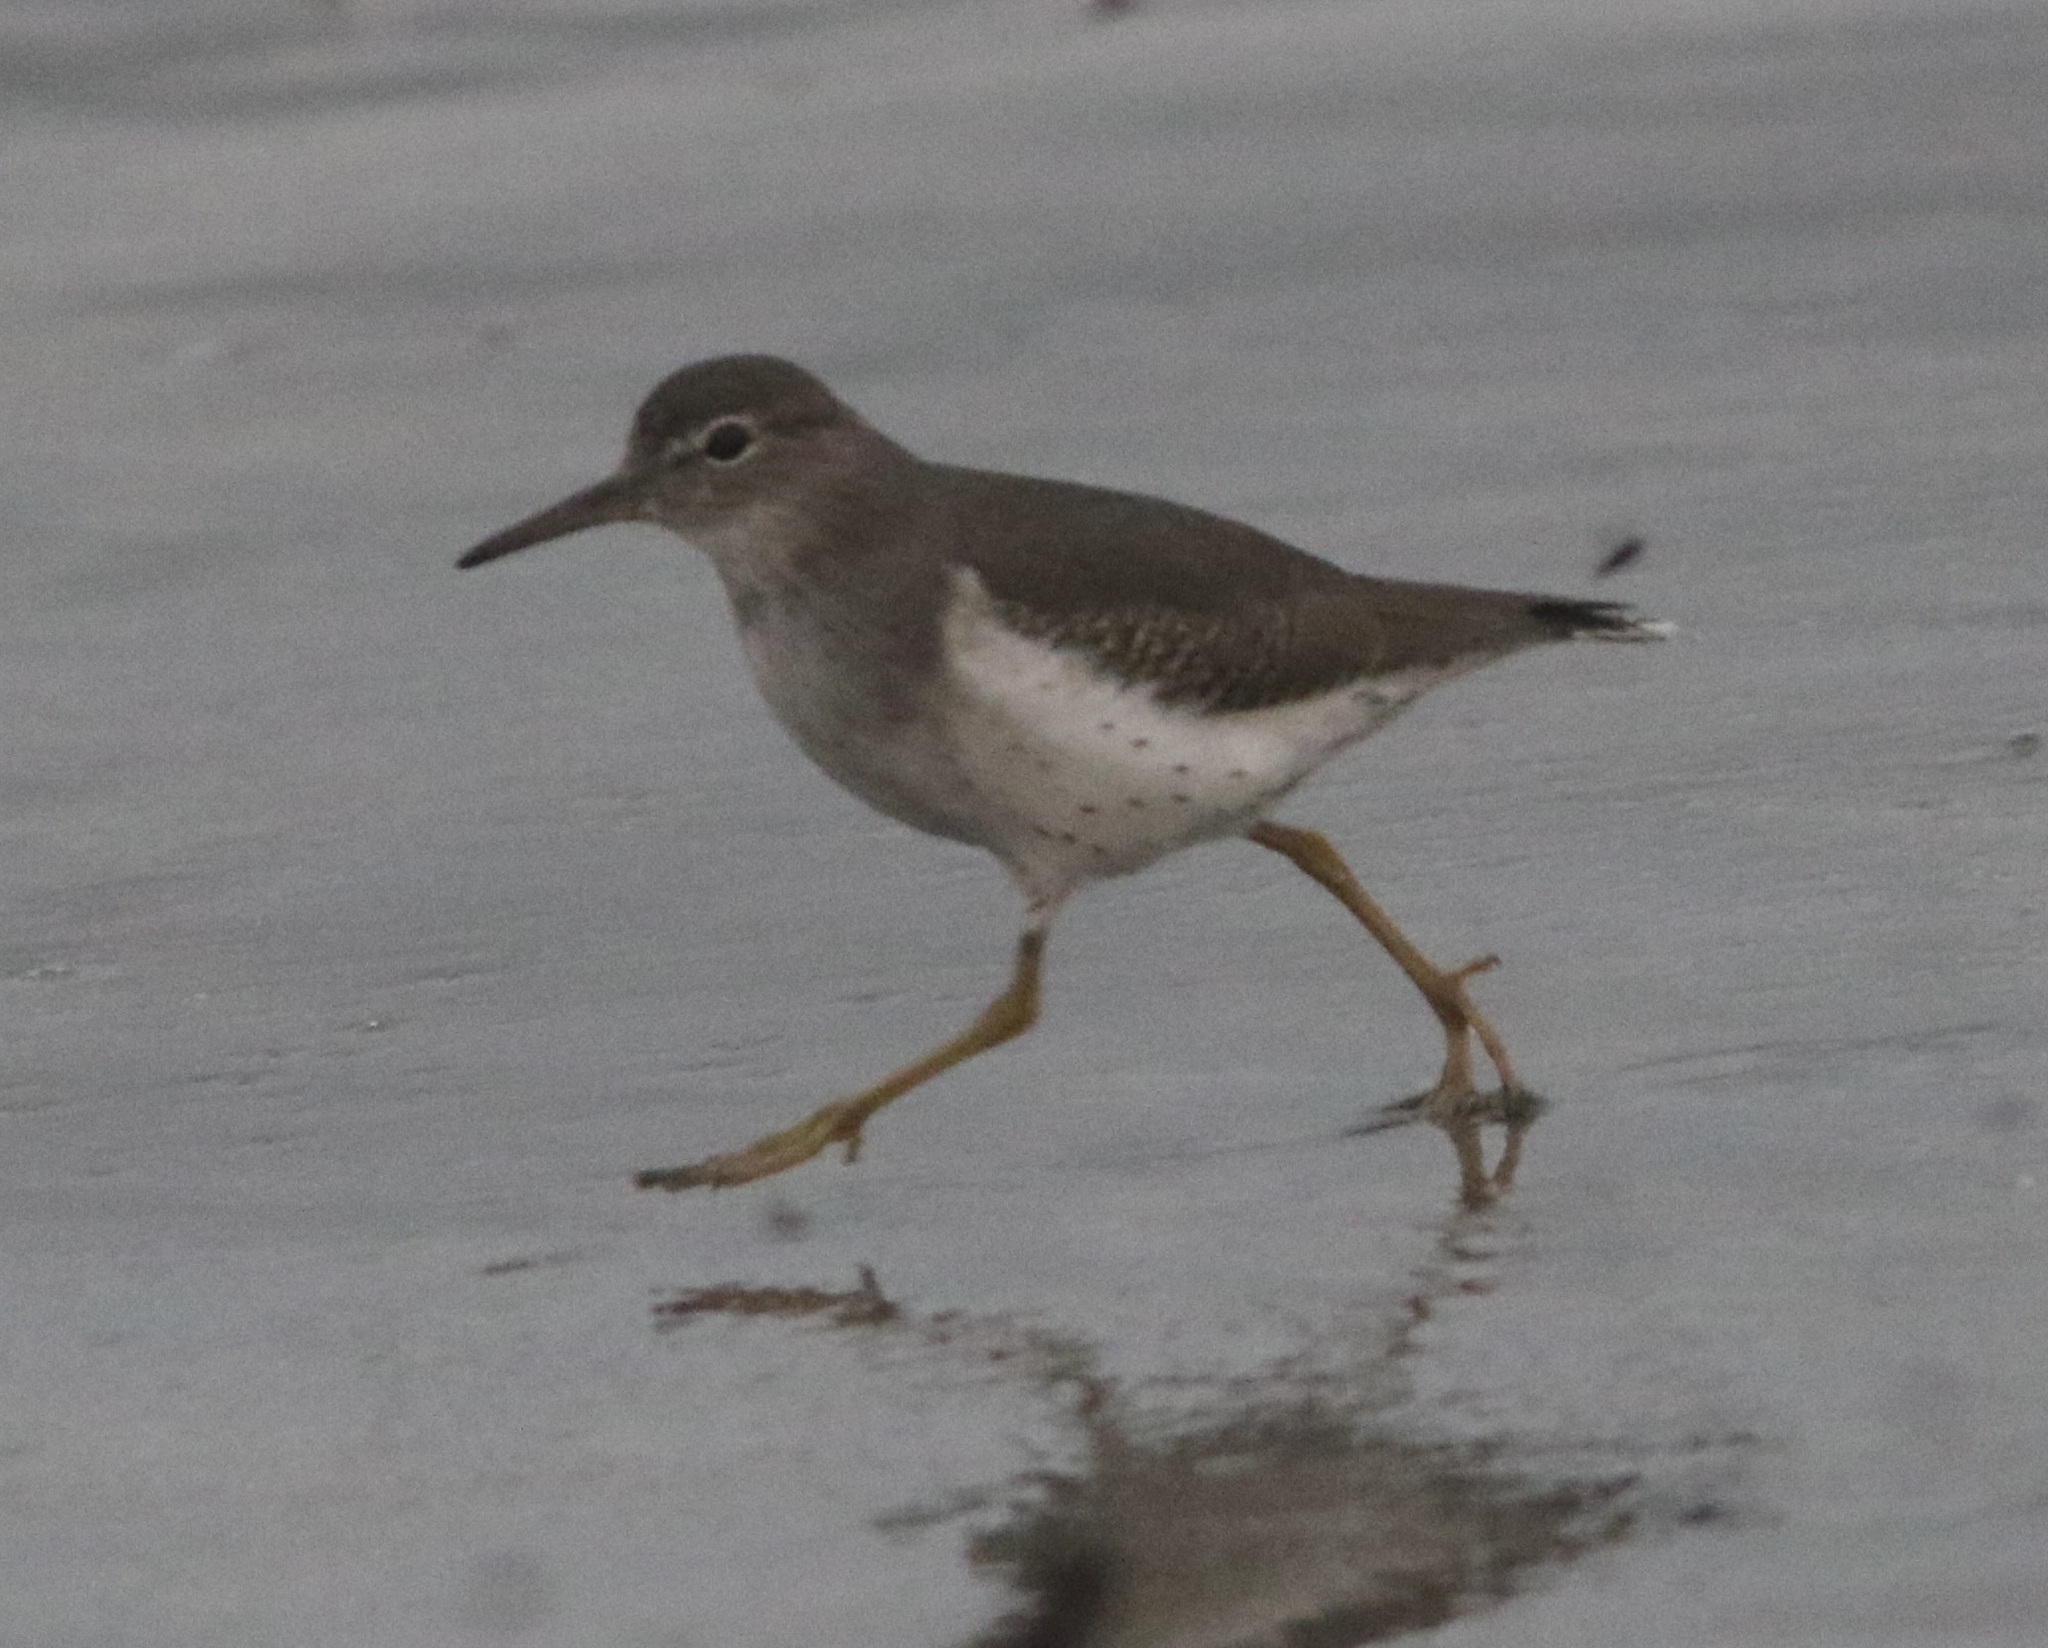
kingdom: Animalia
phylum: Chordata
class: Aves
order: Charadriiformes
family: Scolopacidae
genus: Actitis
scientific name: Actitis macularius
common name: Spotted sandpiper
